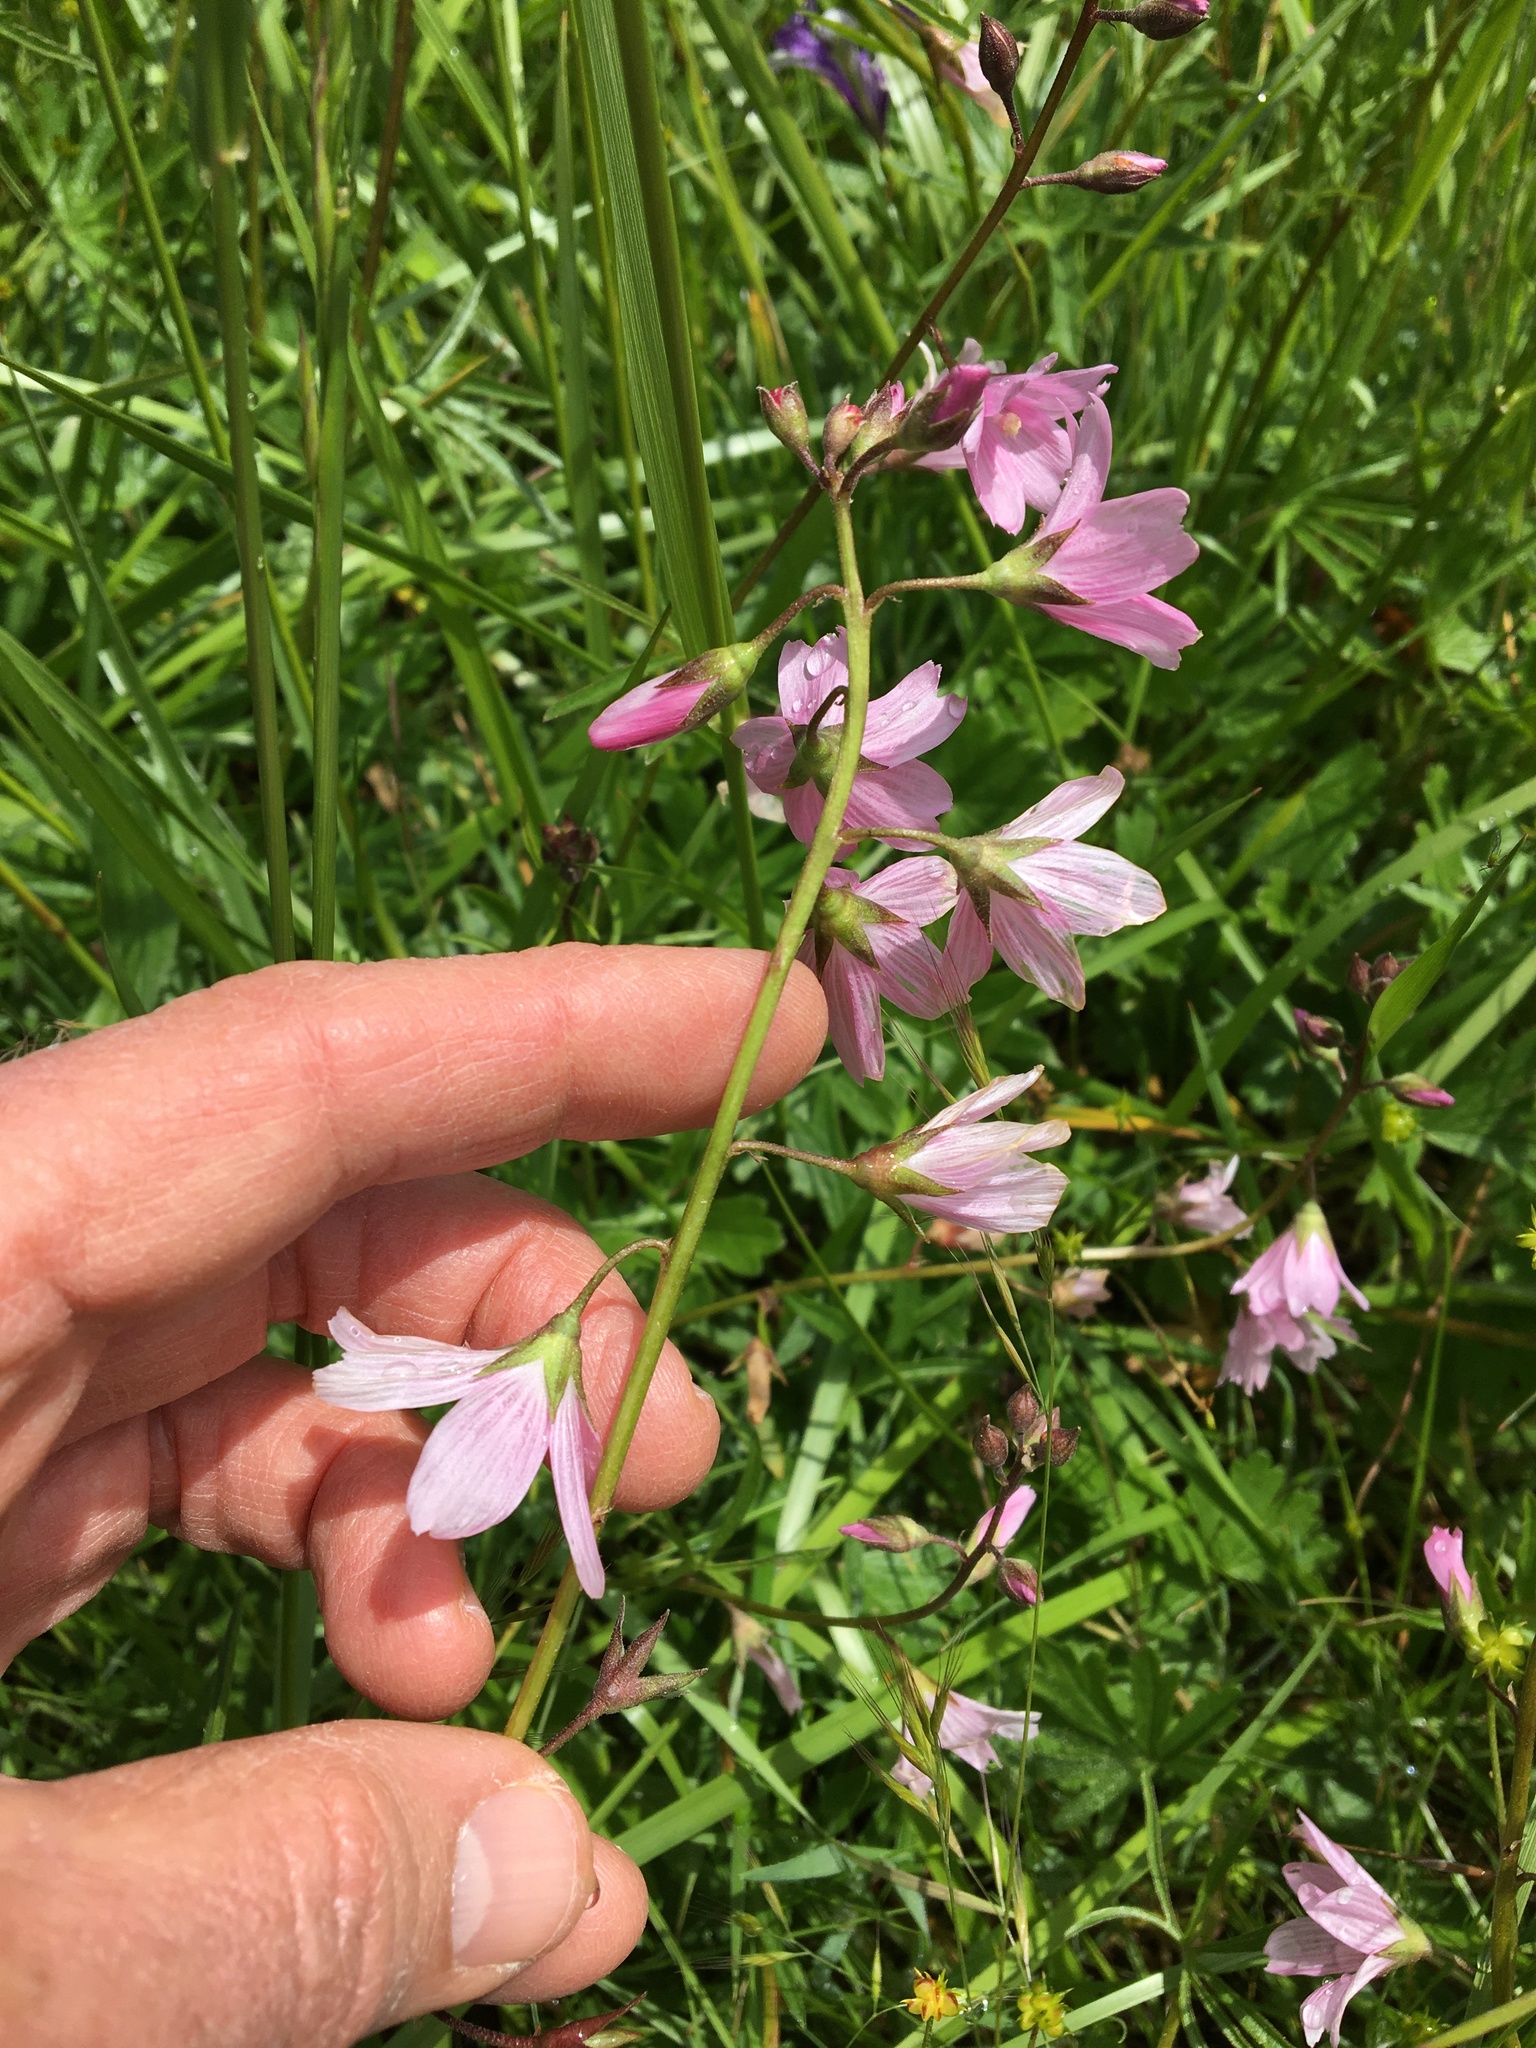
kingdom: Plantae
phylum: Tracheophyta
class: Magnoliopsida
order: Malvales
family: Malvaceae
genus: Sidalcea
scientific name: Sidalcea asprella
